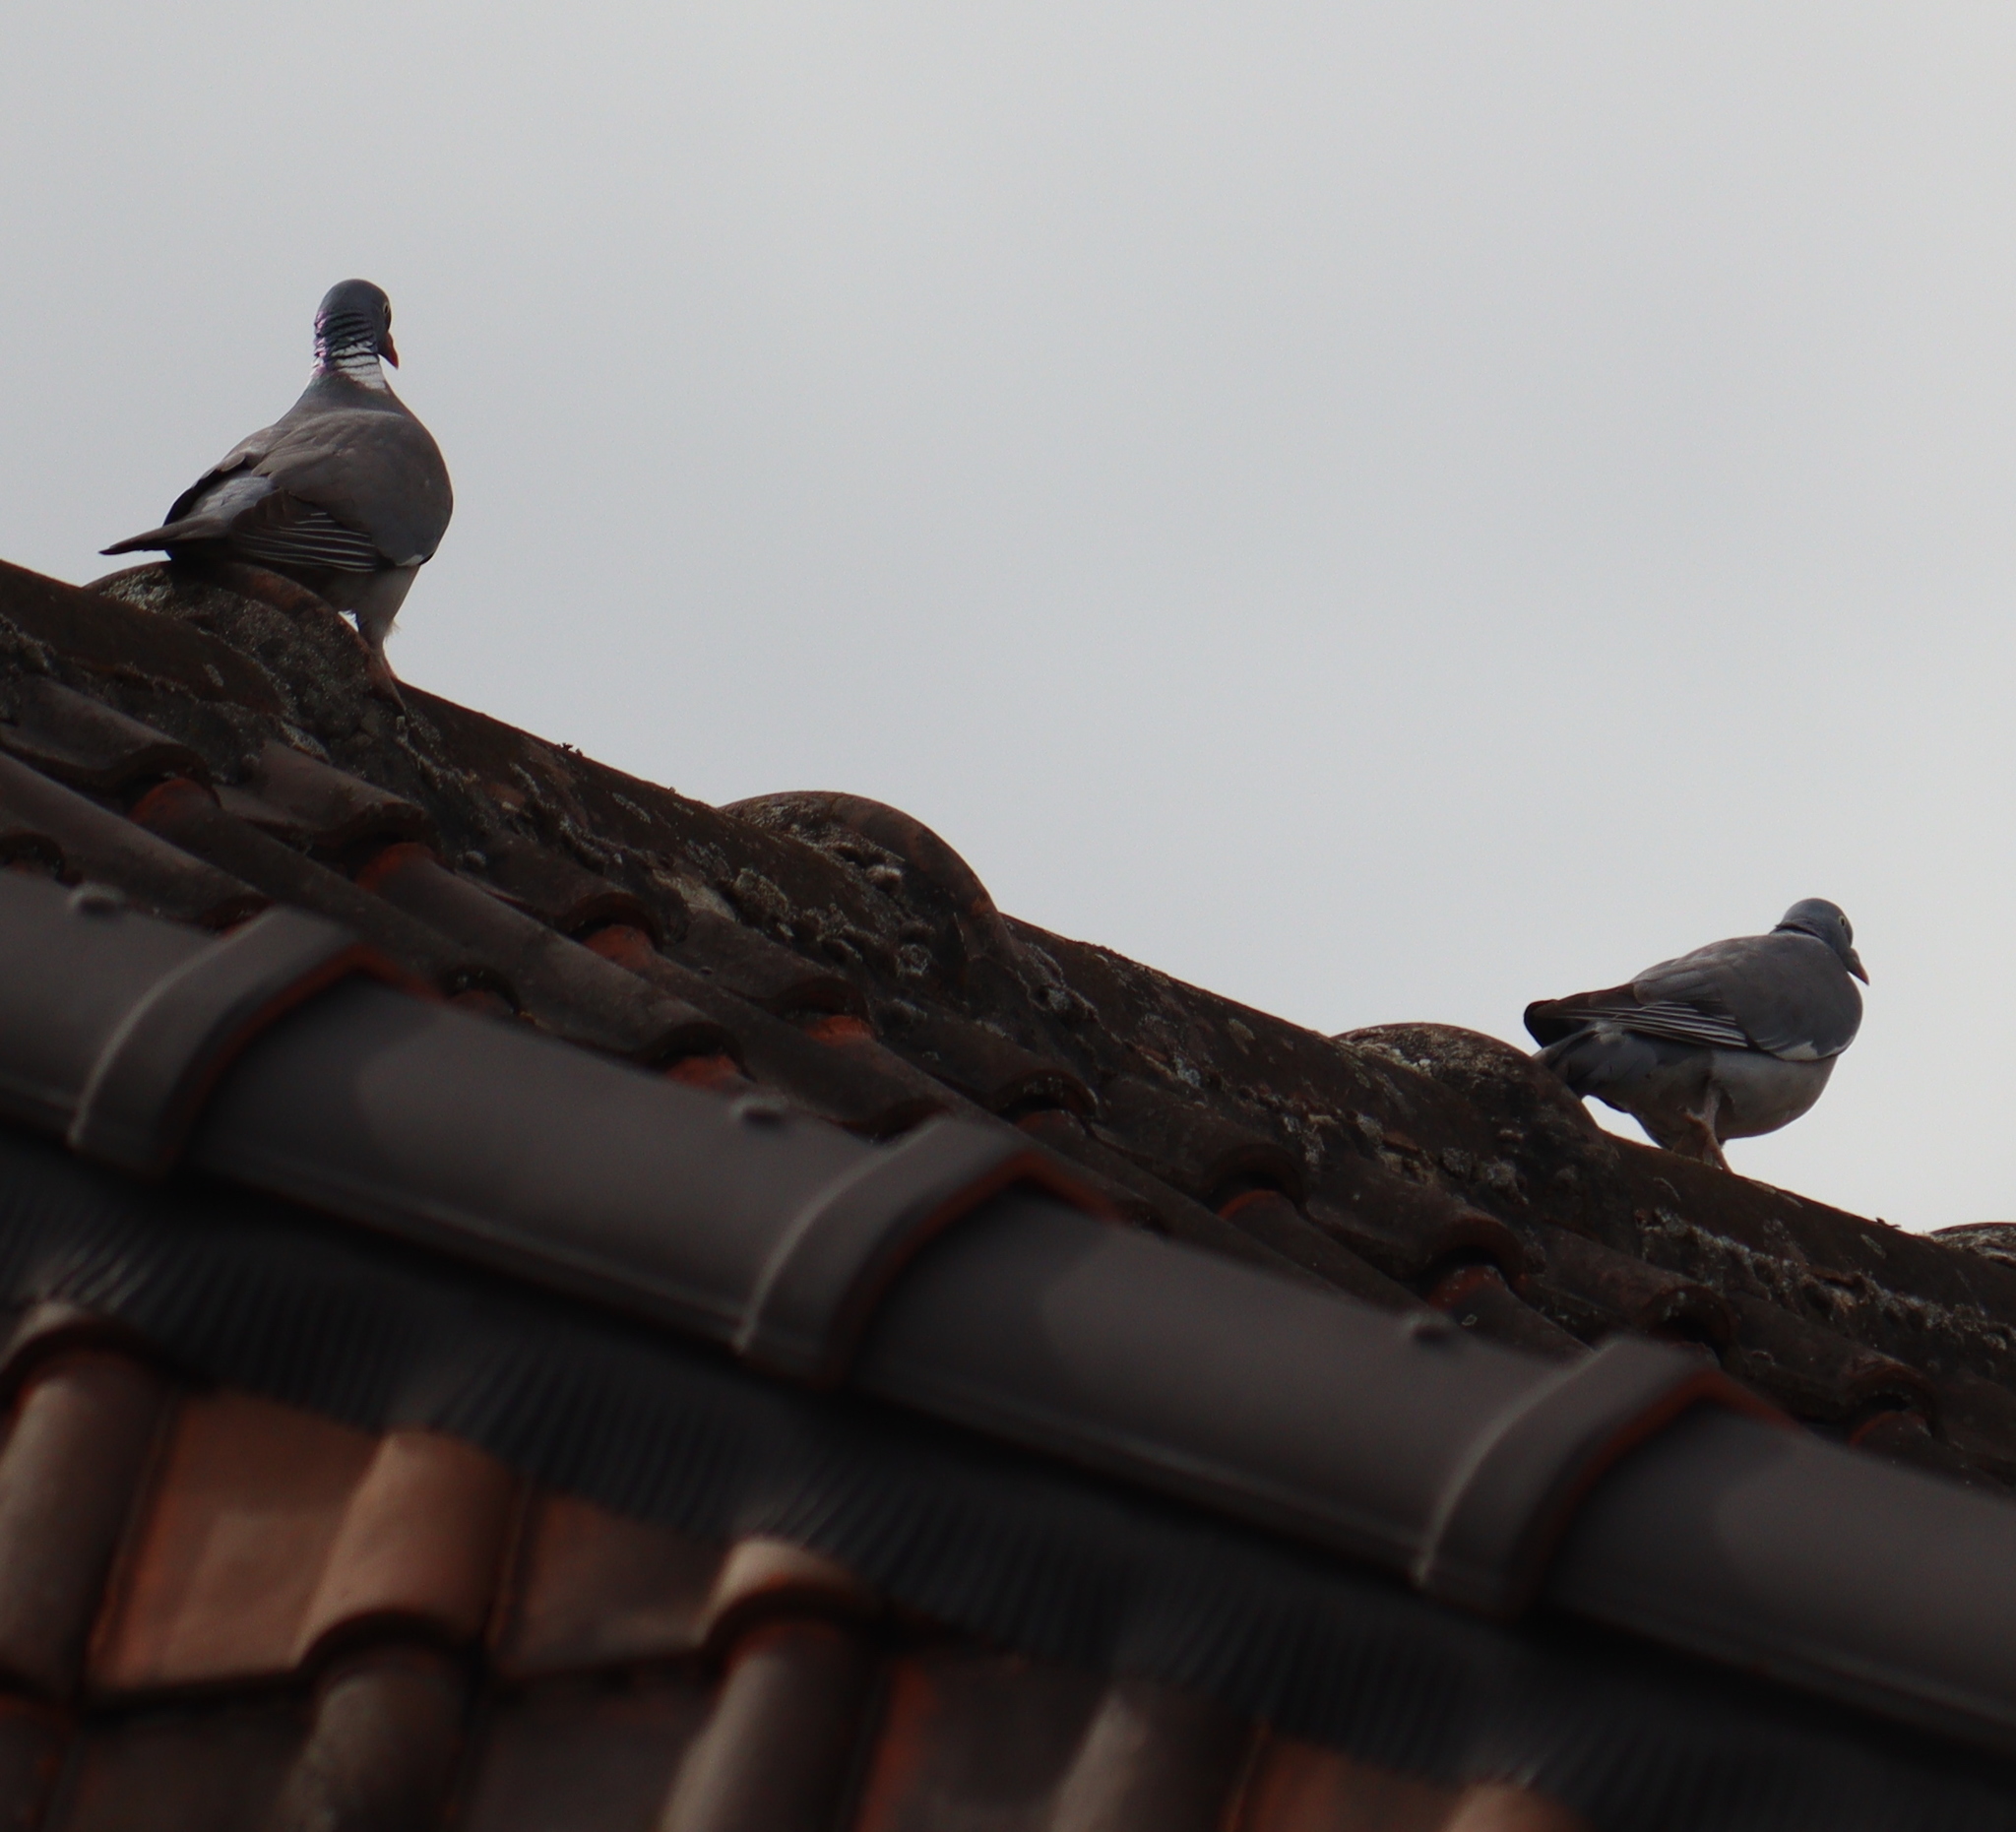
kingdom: Animalia
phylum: Chordata
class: Aves
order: Columbiformes
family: Columbidae
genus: Columba
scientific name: Columba palumbus
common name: Common wood pigeon
